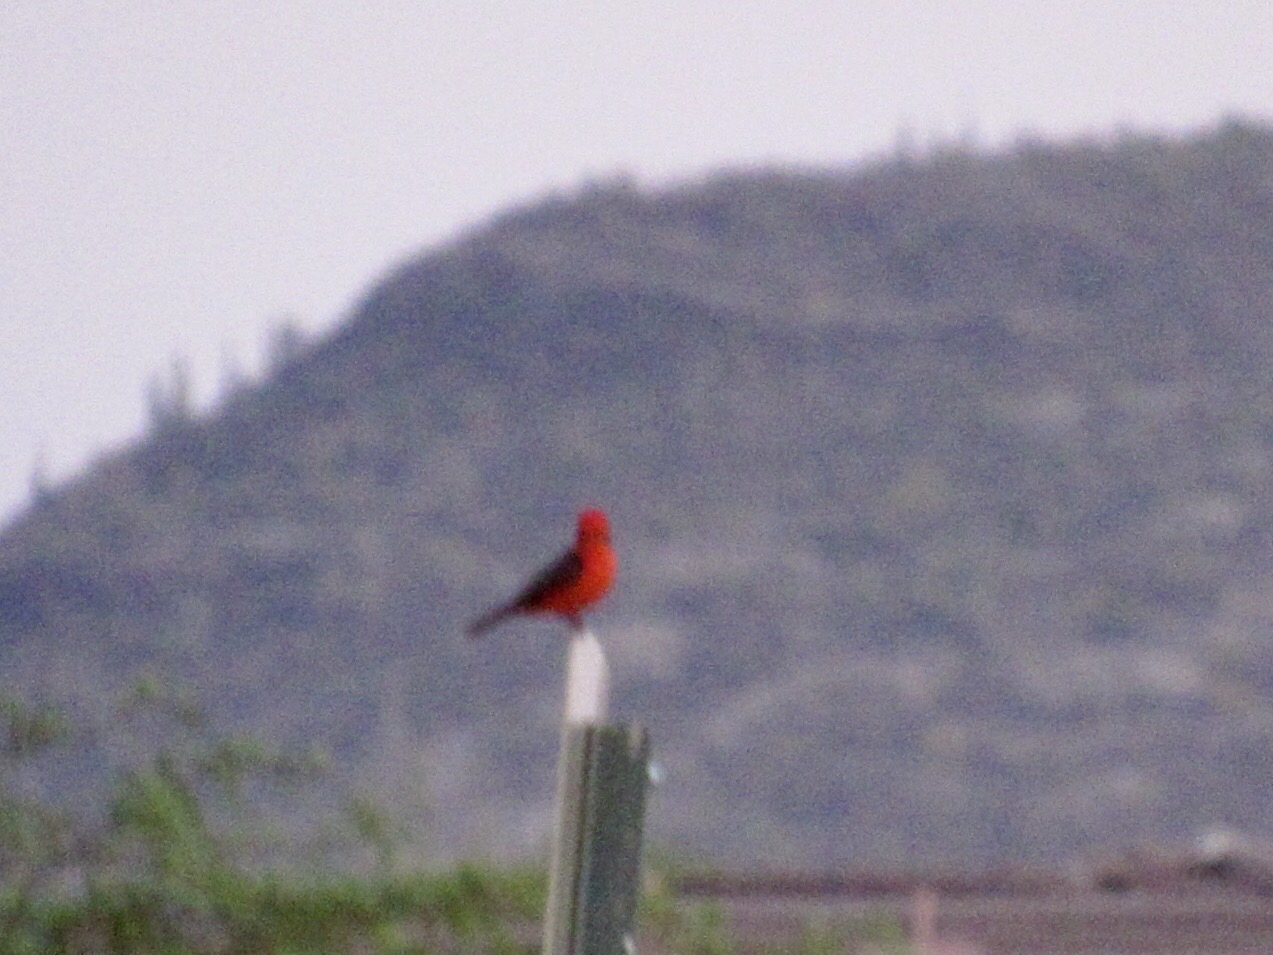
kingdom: Animalia
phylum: Chordata
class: Aves
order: Passeriformes
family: Tyrannidae
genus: Pyrocephalus
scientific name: Pyrocephalus rubinus
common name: Vermilion flycatcher
